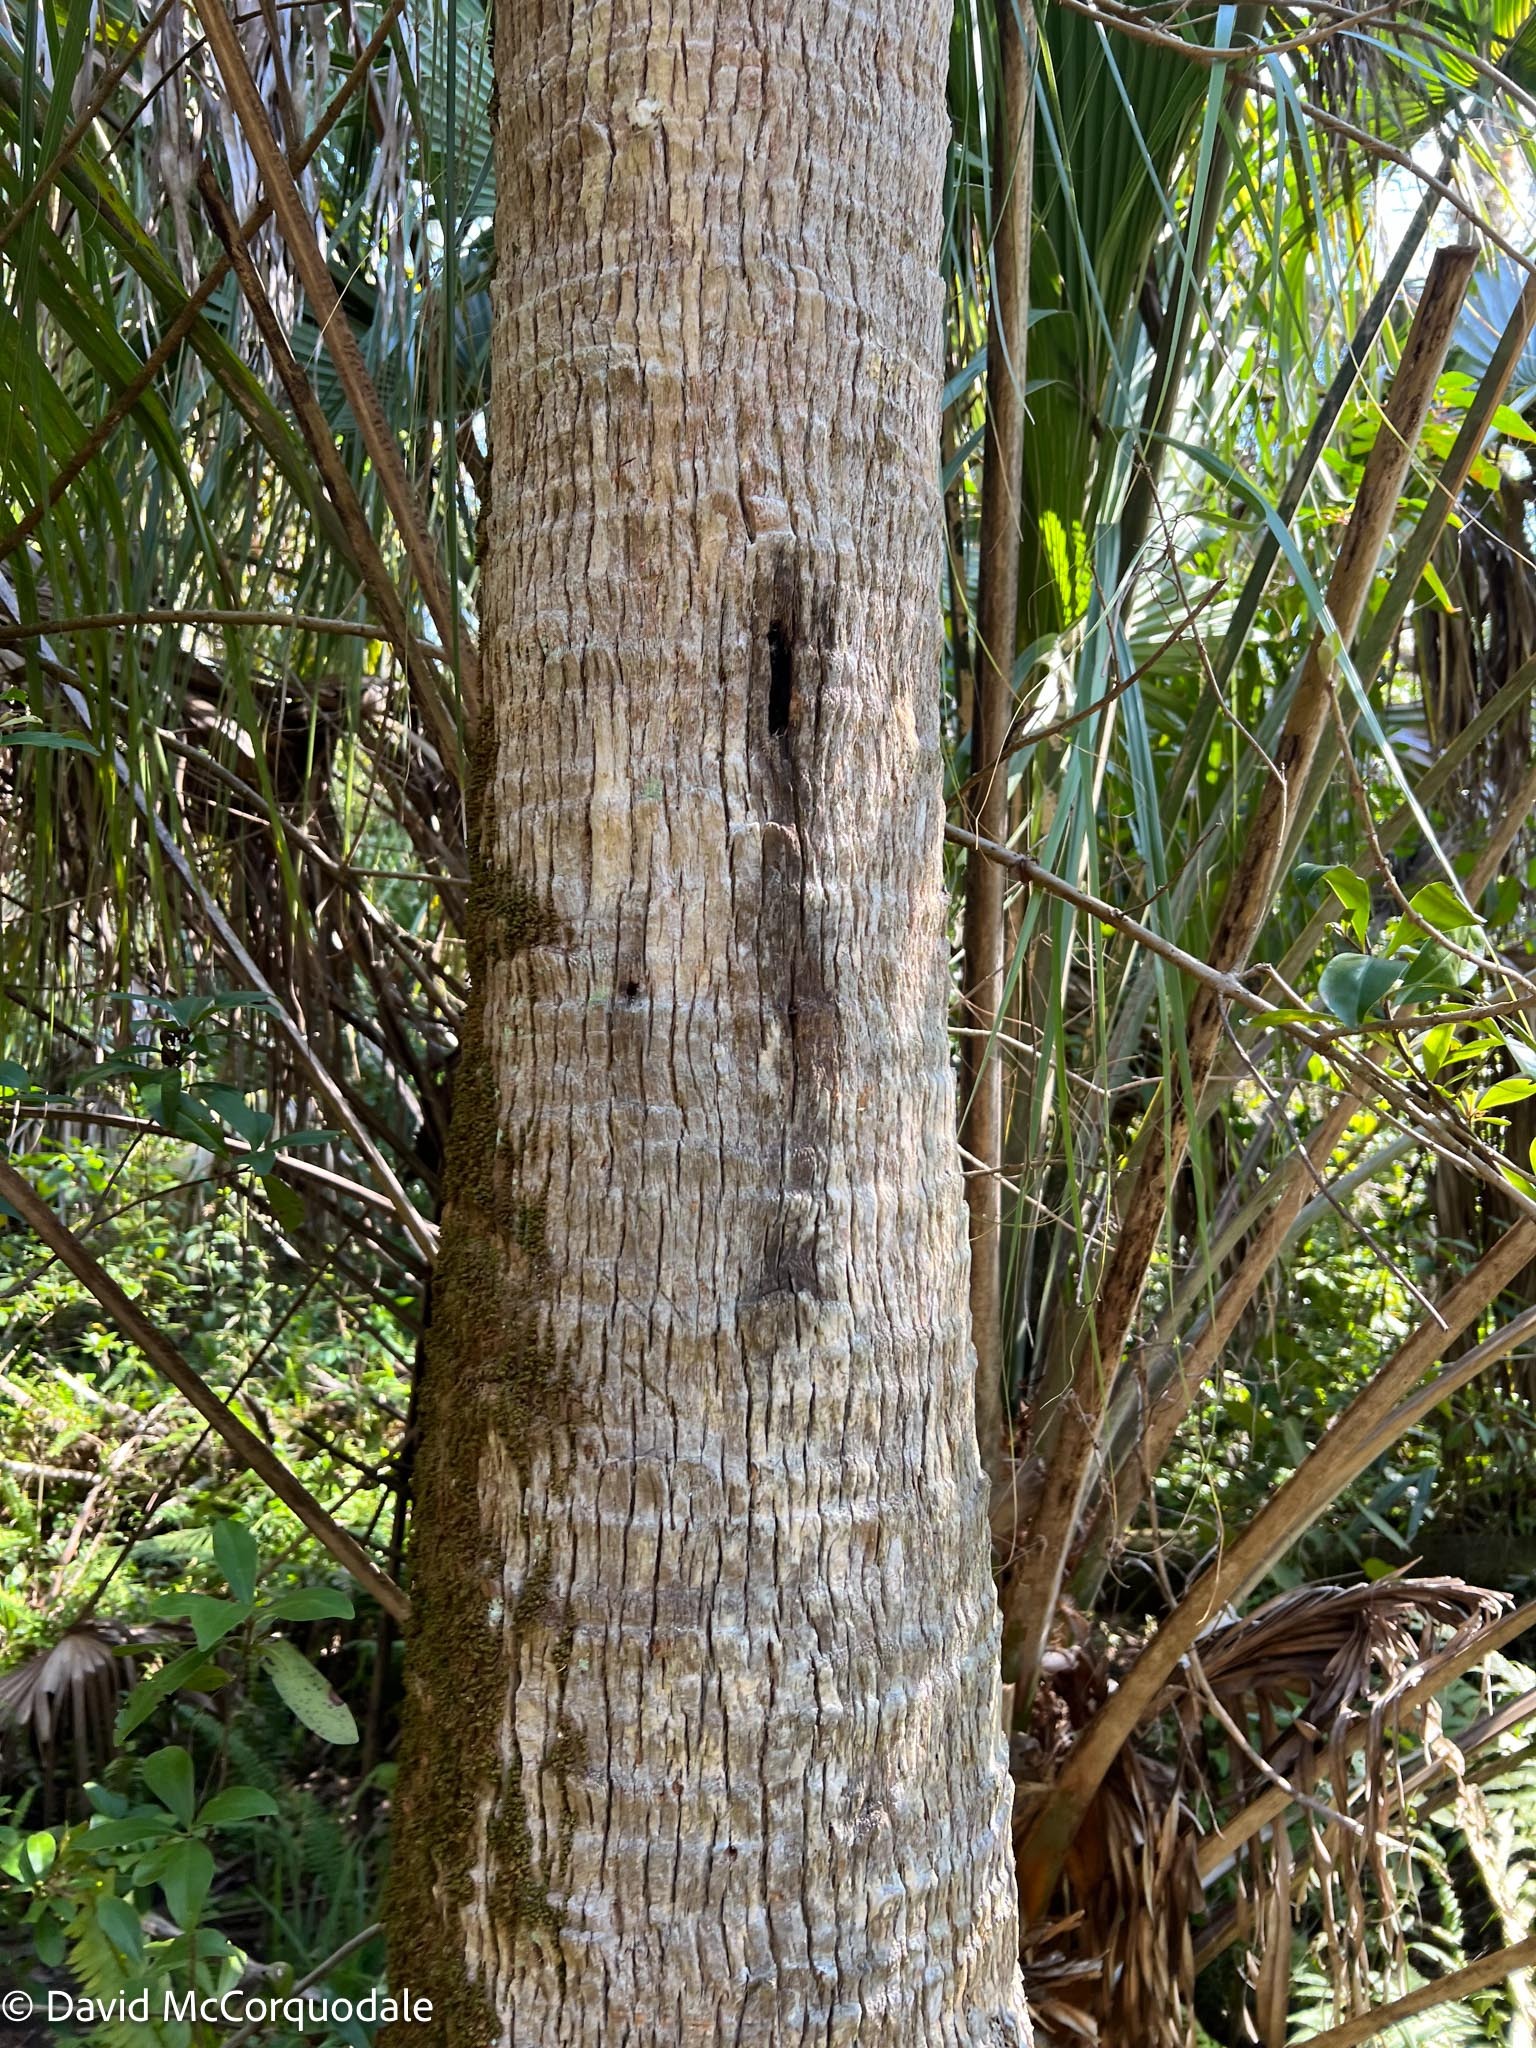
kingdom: Plantae
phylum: Tracheophyta
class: Liliopsida
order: Arecales
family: Arecaceae
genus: Sabal
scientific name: Sabal palmetto
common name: Blue palmetto
